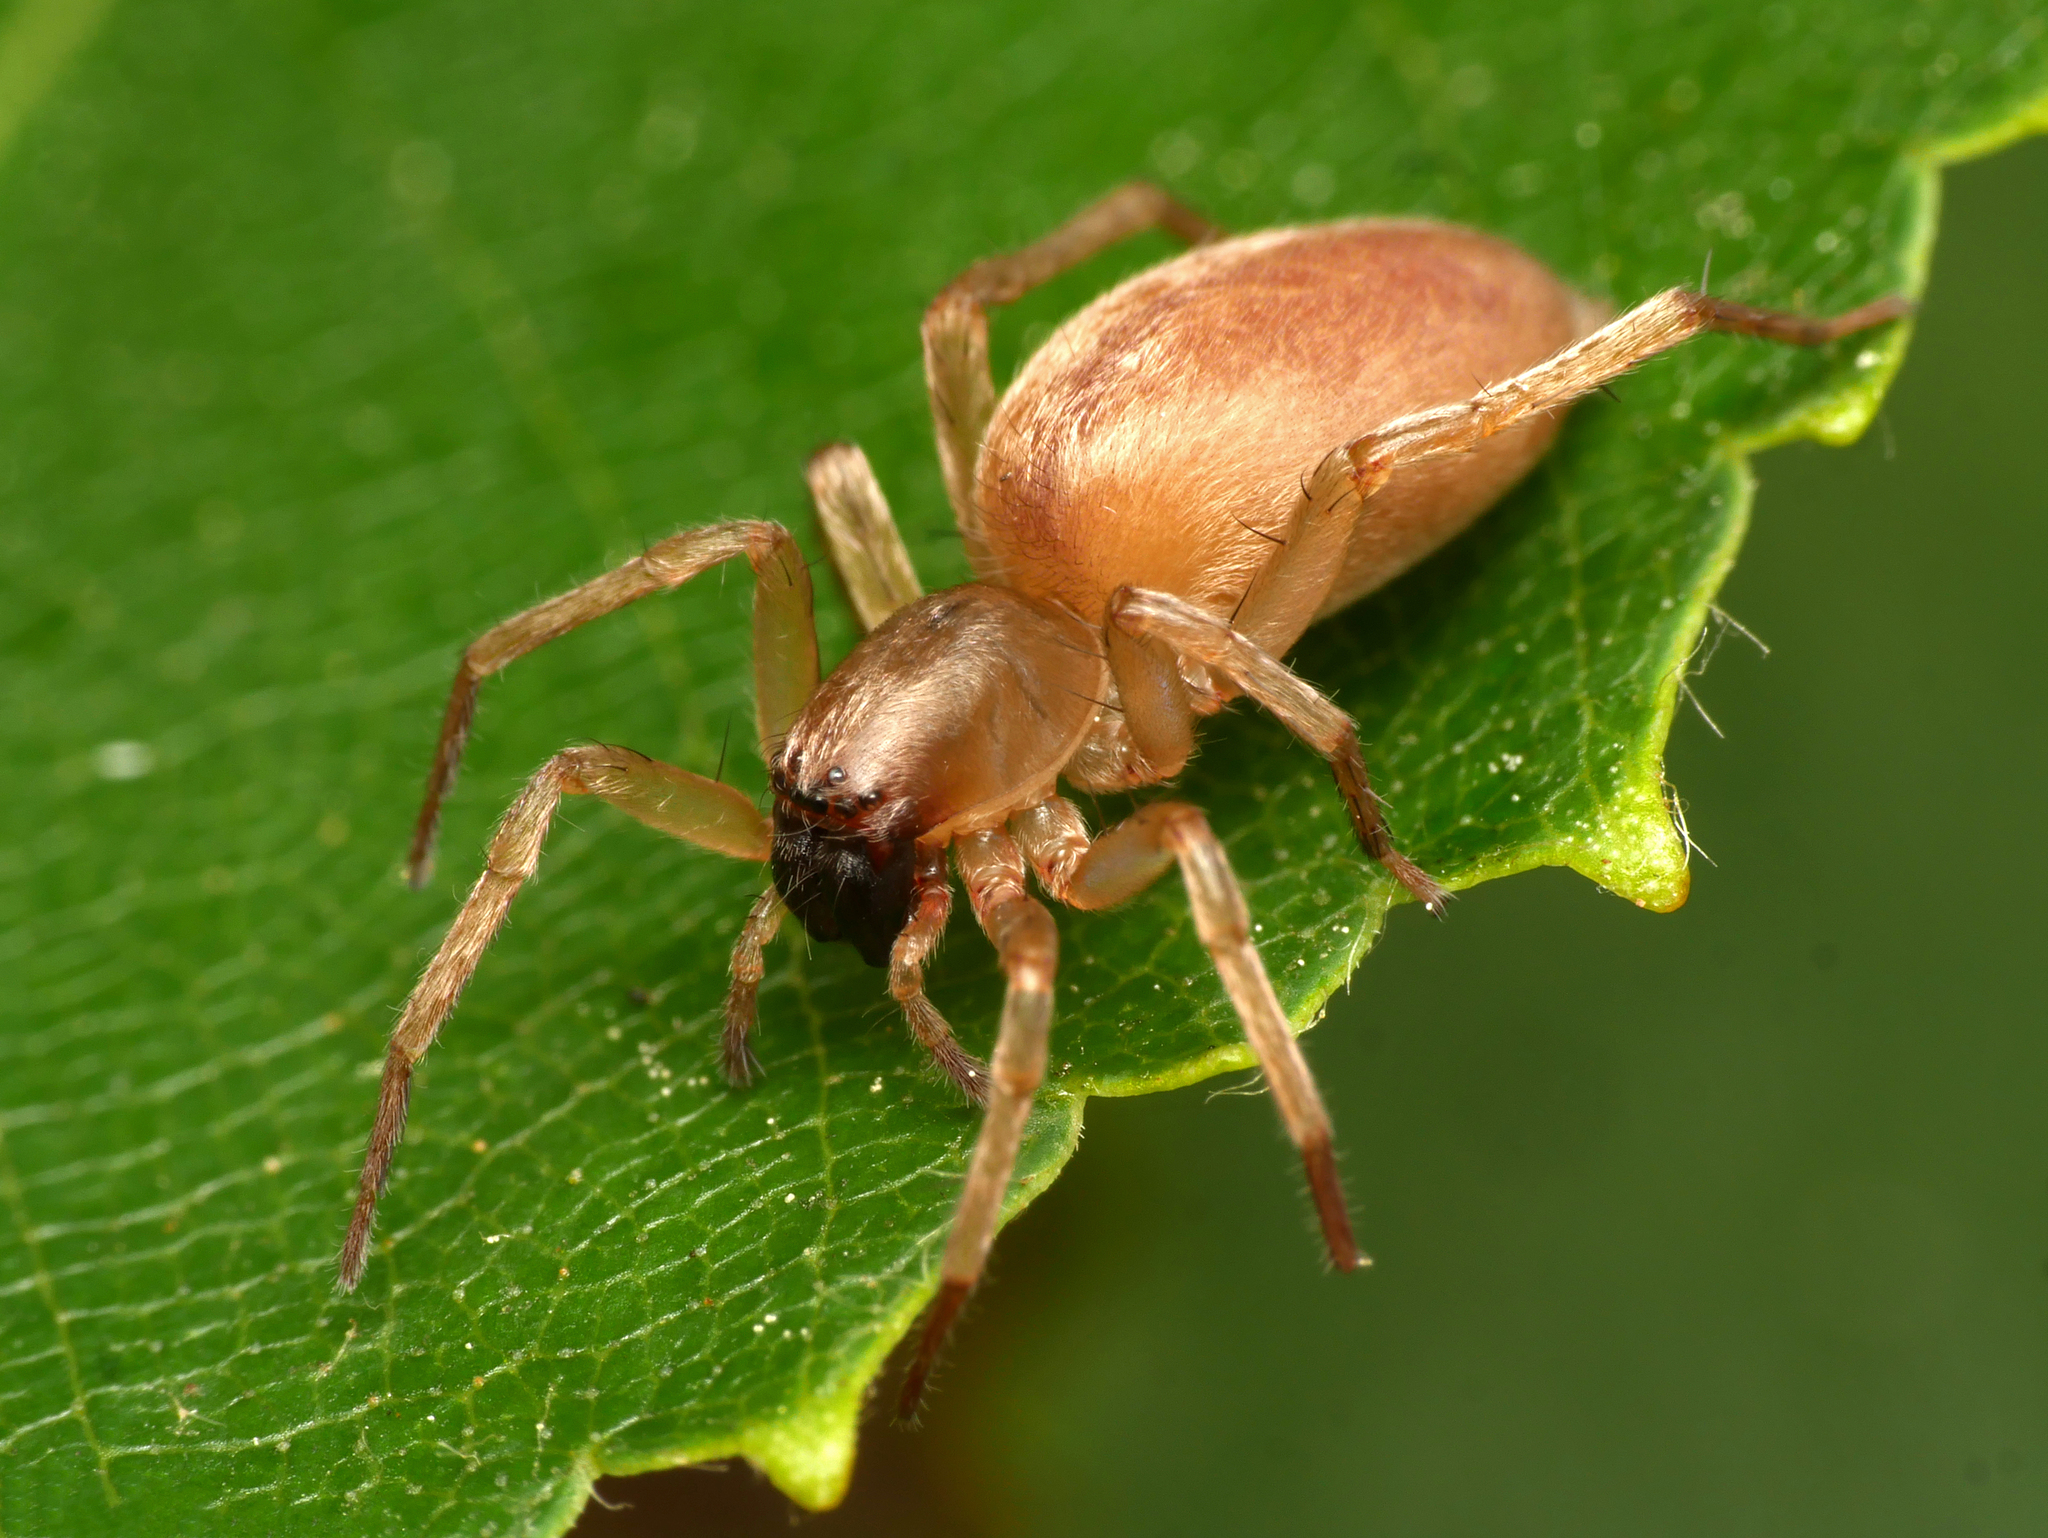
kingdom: Animalia
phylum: Arthropoda
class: Arachnida
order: Araneae
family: Clubionidae
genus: Clubiona
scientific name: Clubiona frutetorum
